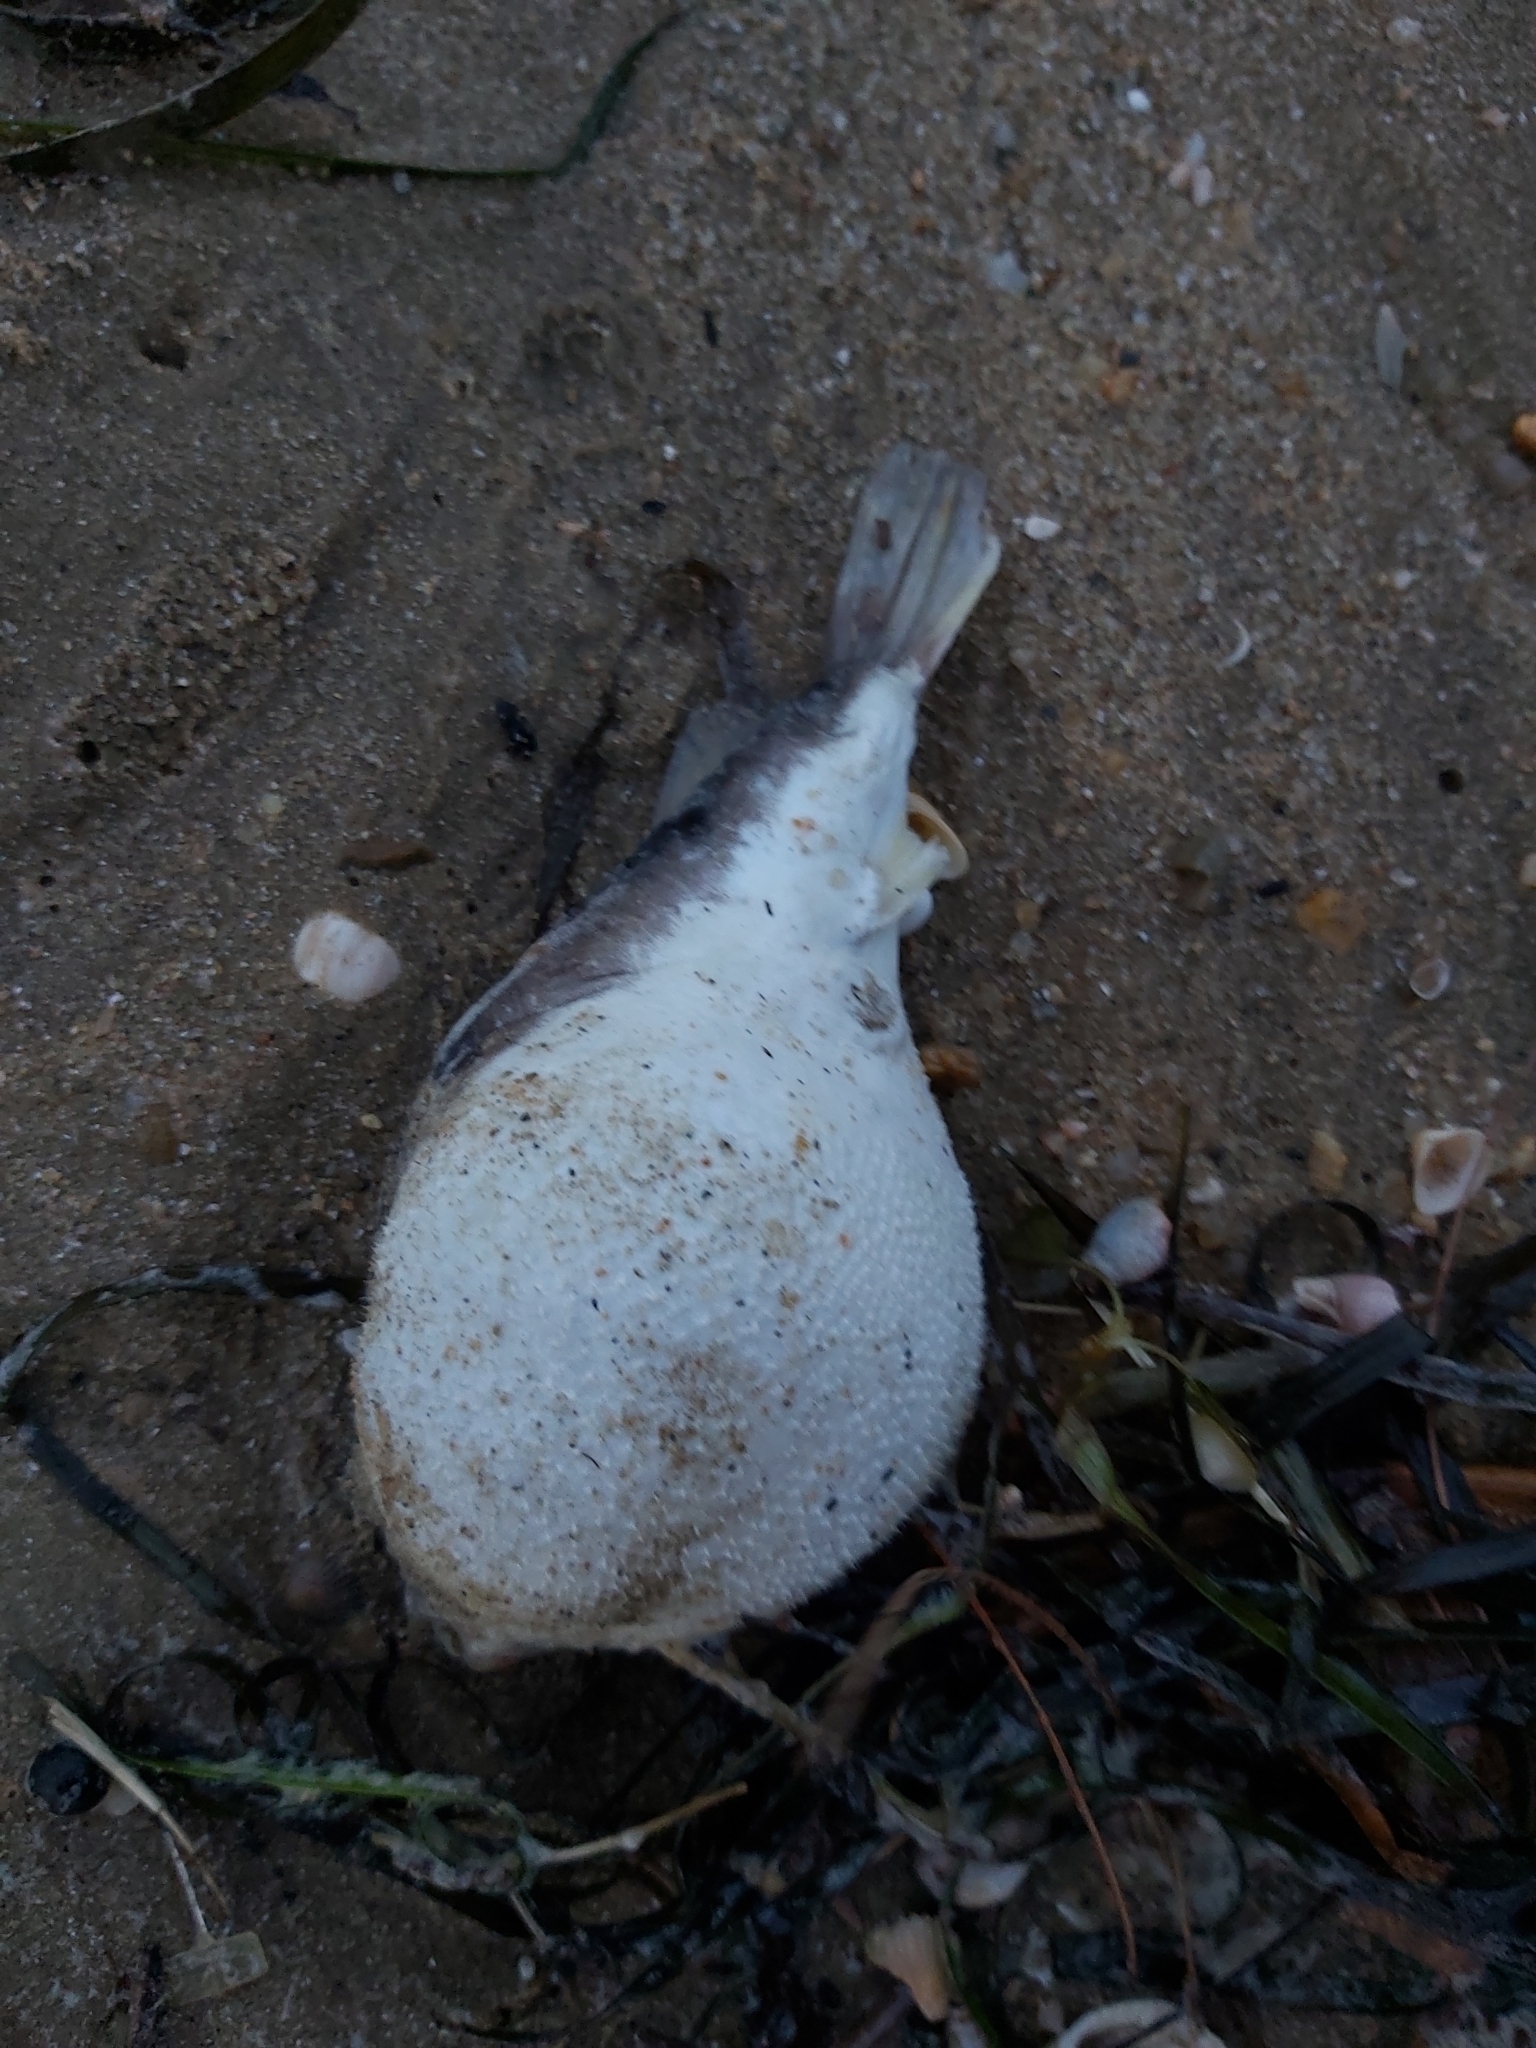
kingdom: Animalia
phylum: Chordata
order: Tetraodontiformes
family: Tetraodontidae
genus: Marilyna
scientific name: Marilyna pleurosticta
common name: Banded toadfish
